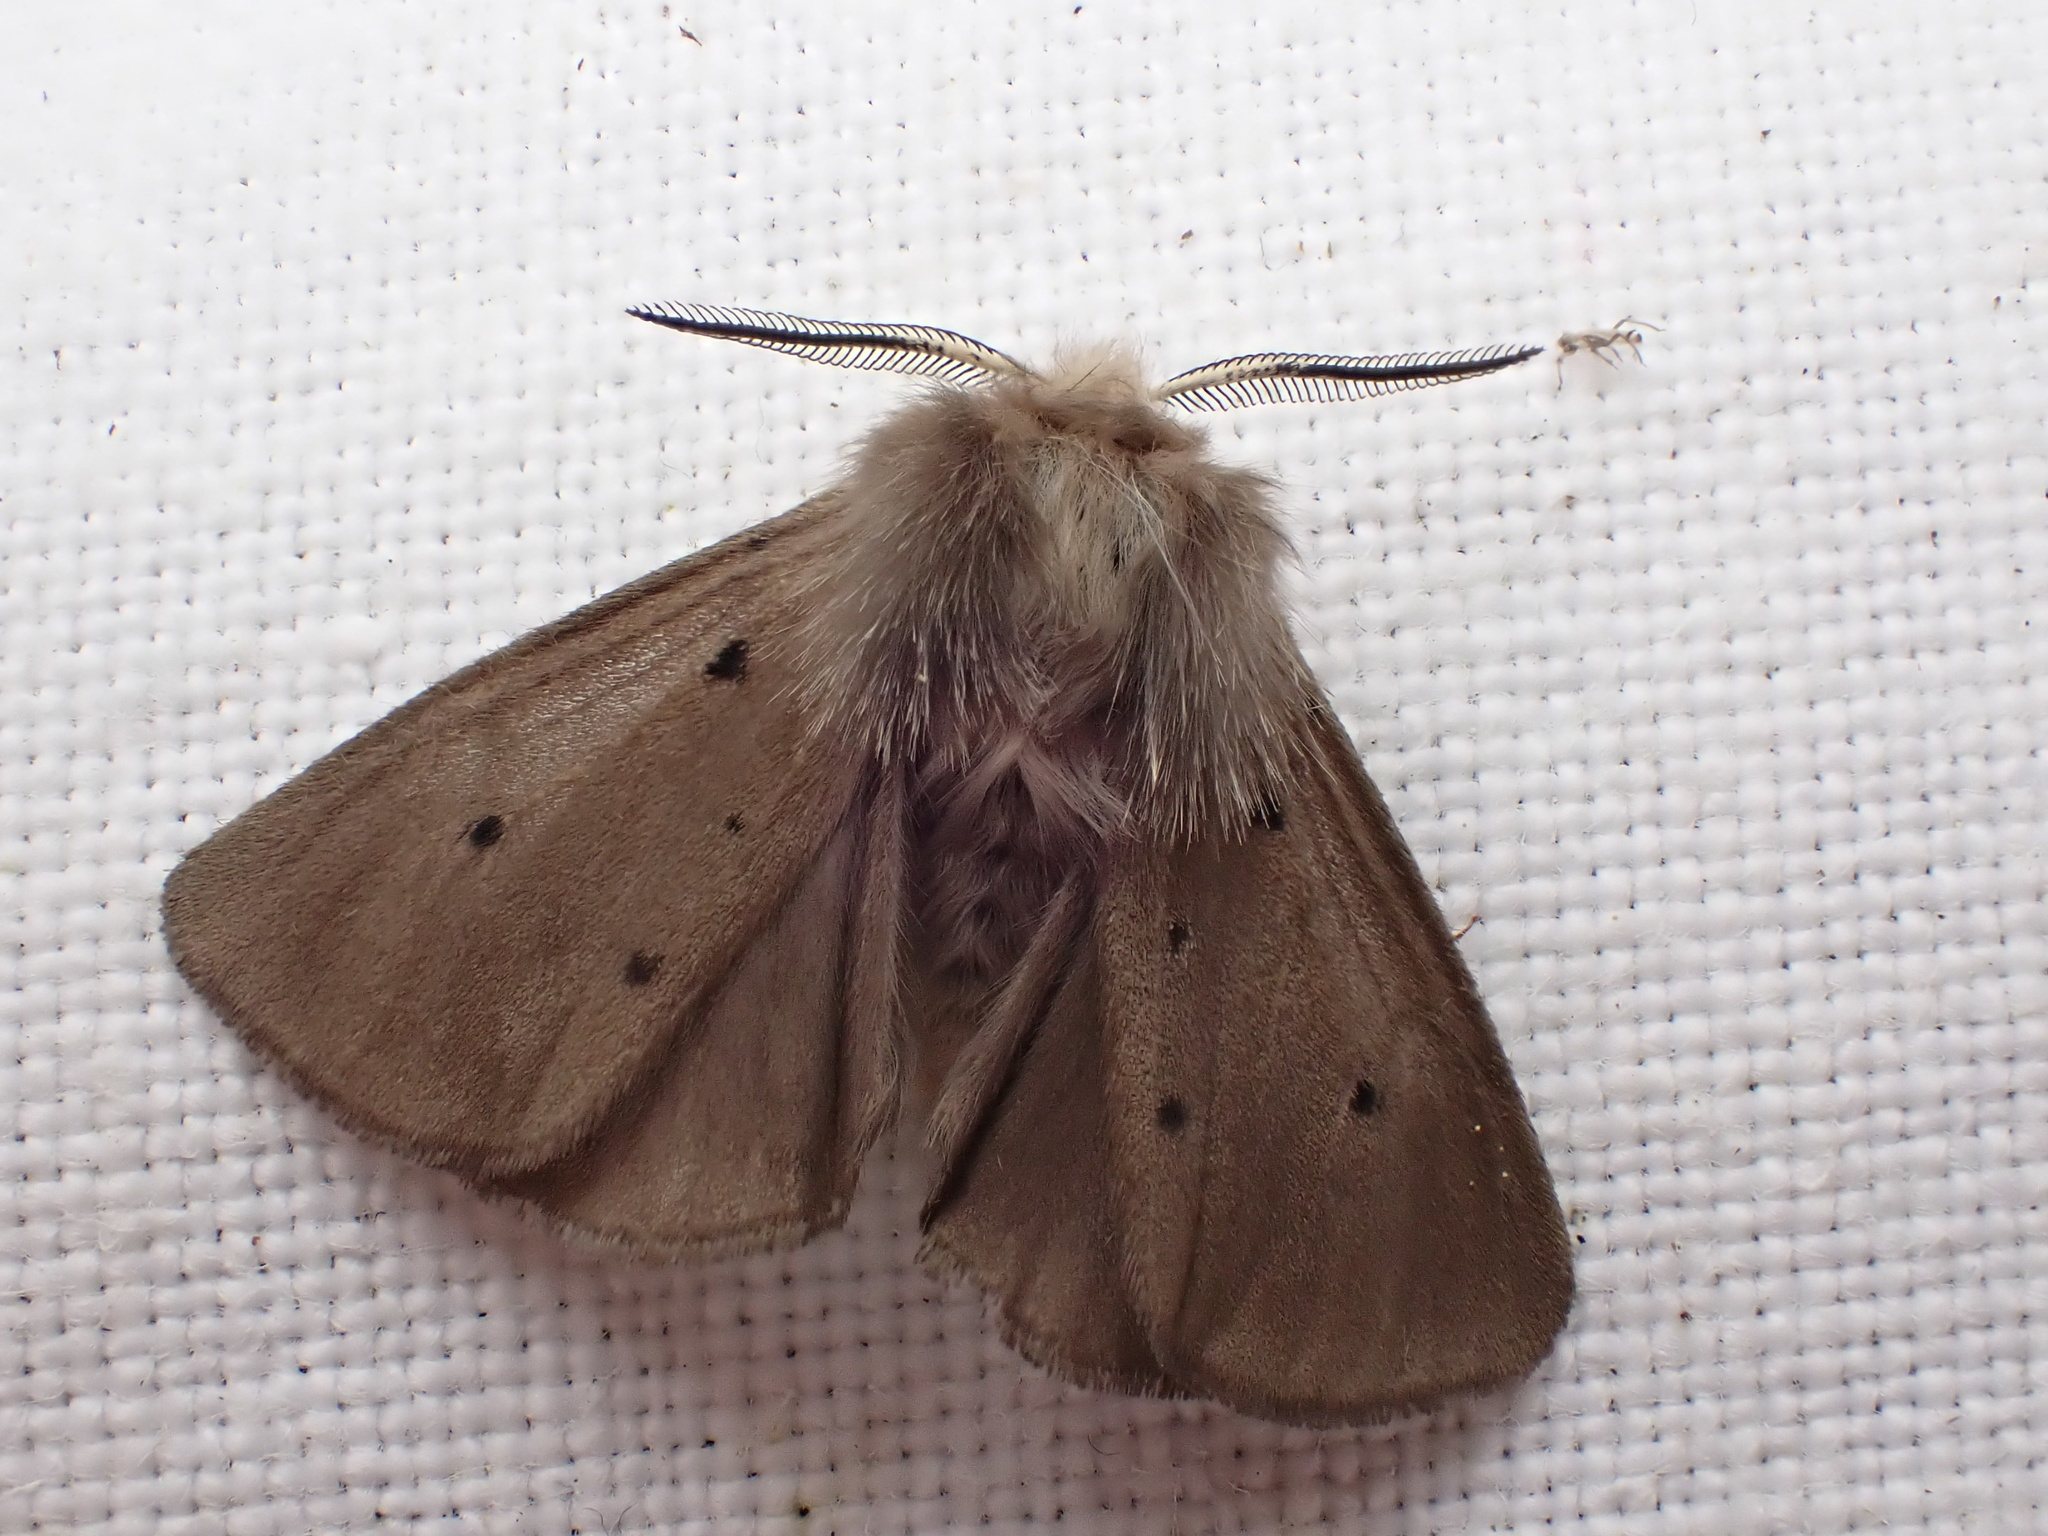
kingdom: Animalia
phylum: Arthropoda
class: Insecta
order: Lepidoptera
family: Erebidae
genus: Diaphora
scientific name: Diaphora mendica
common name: Muslin moth
